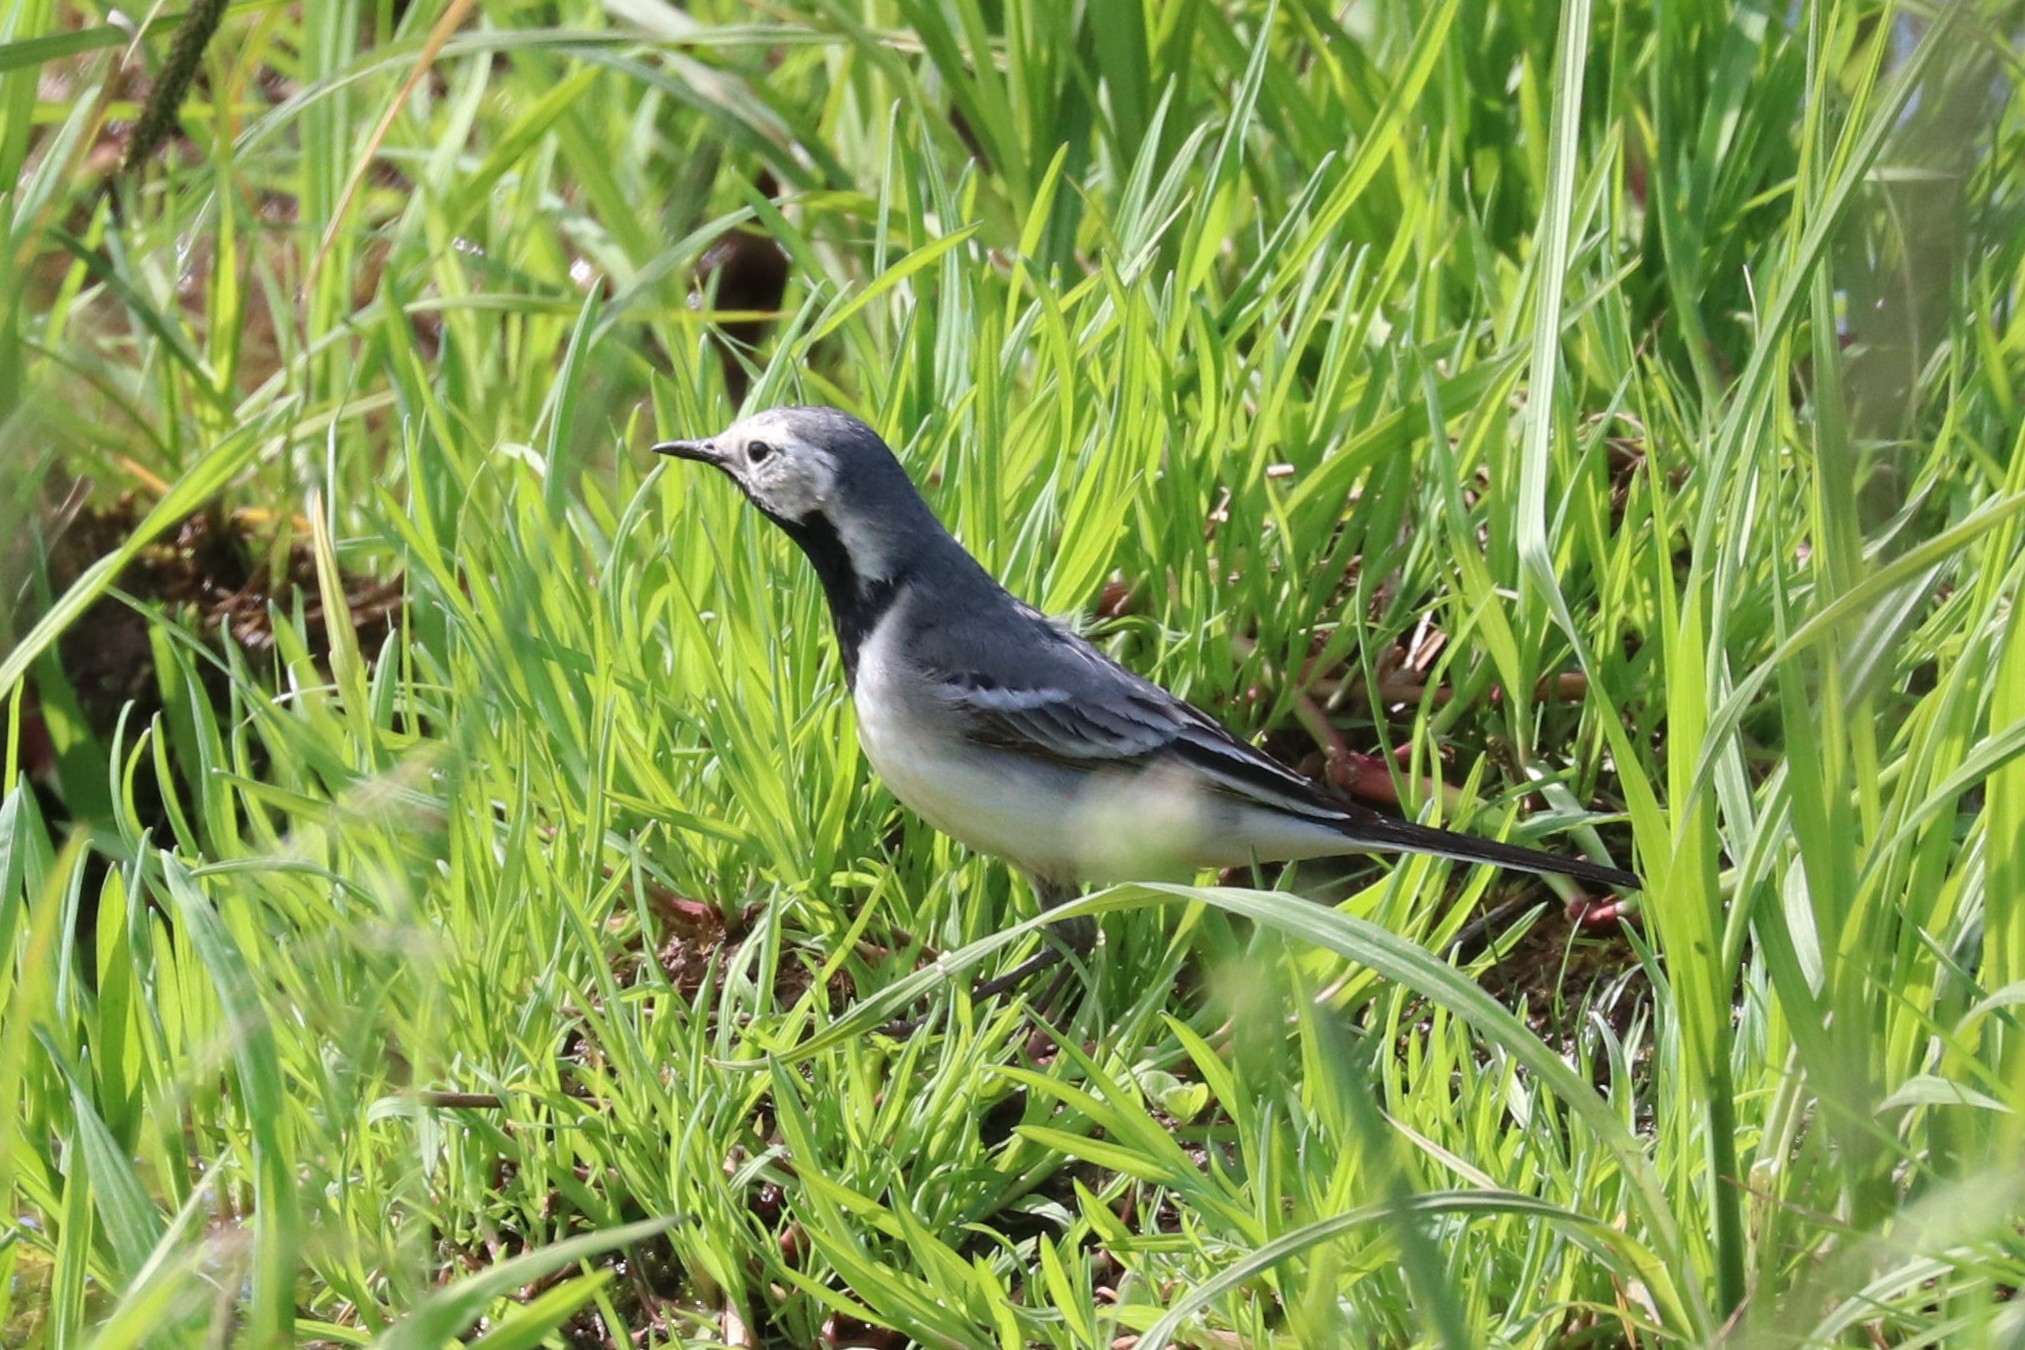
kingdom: Animalia
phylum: Chordata
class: Aves
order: Passeriformes
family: Motacillidae
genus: Motacilla
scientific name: Motacilla alba
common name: White wagtail
